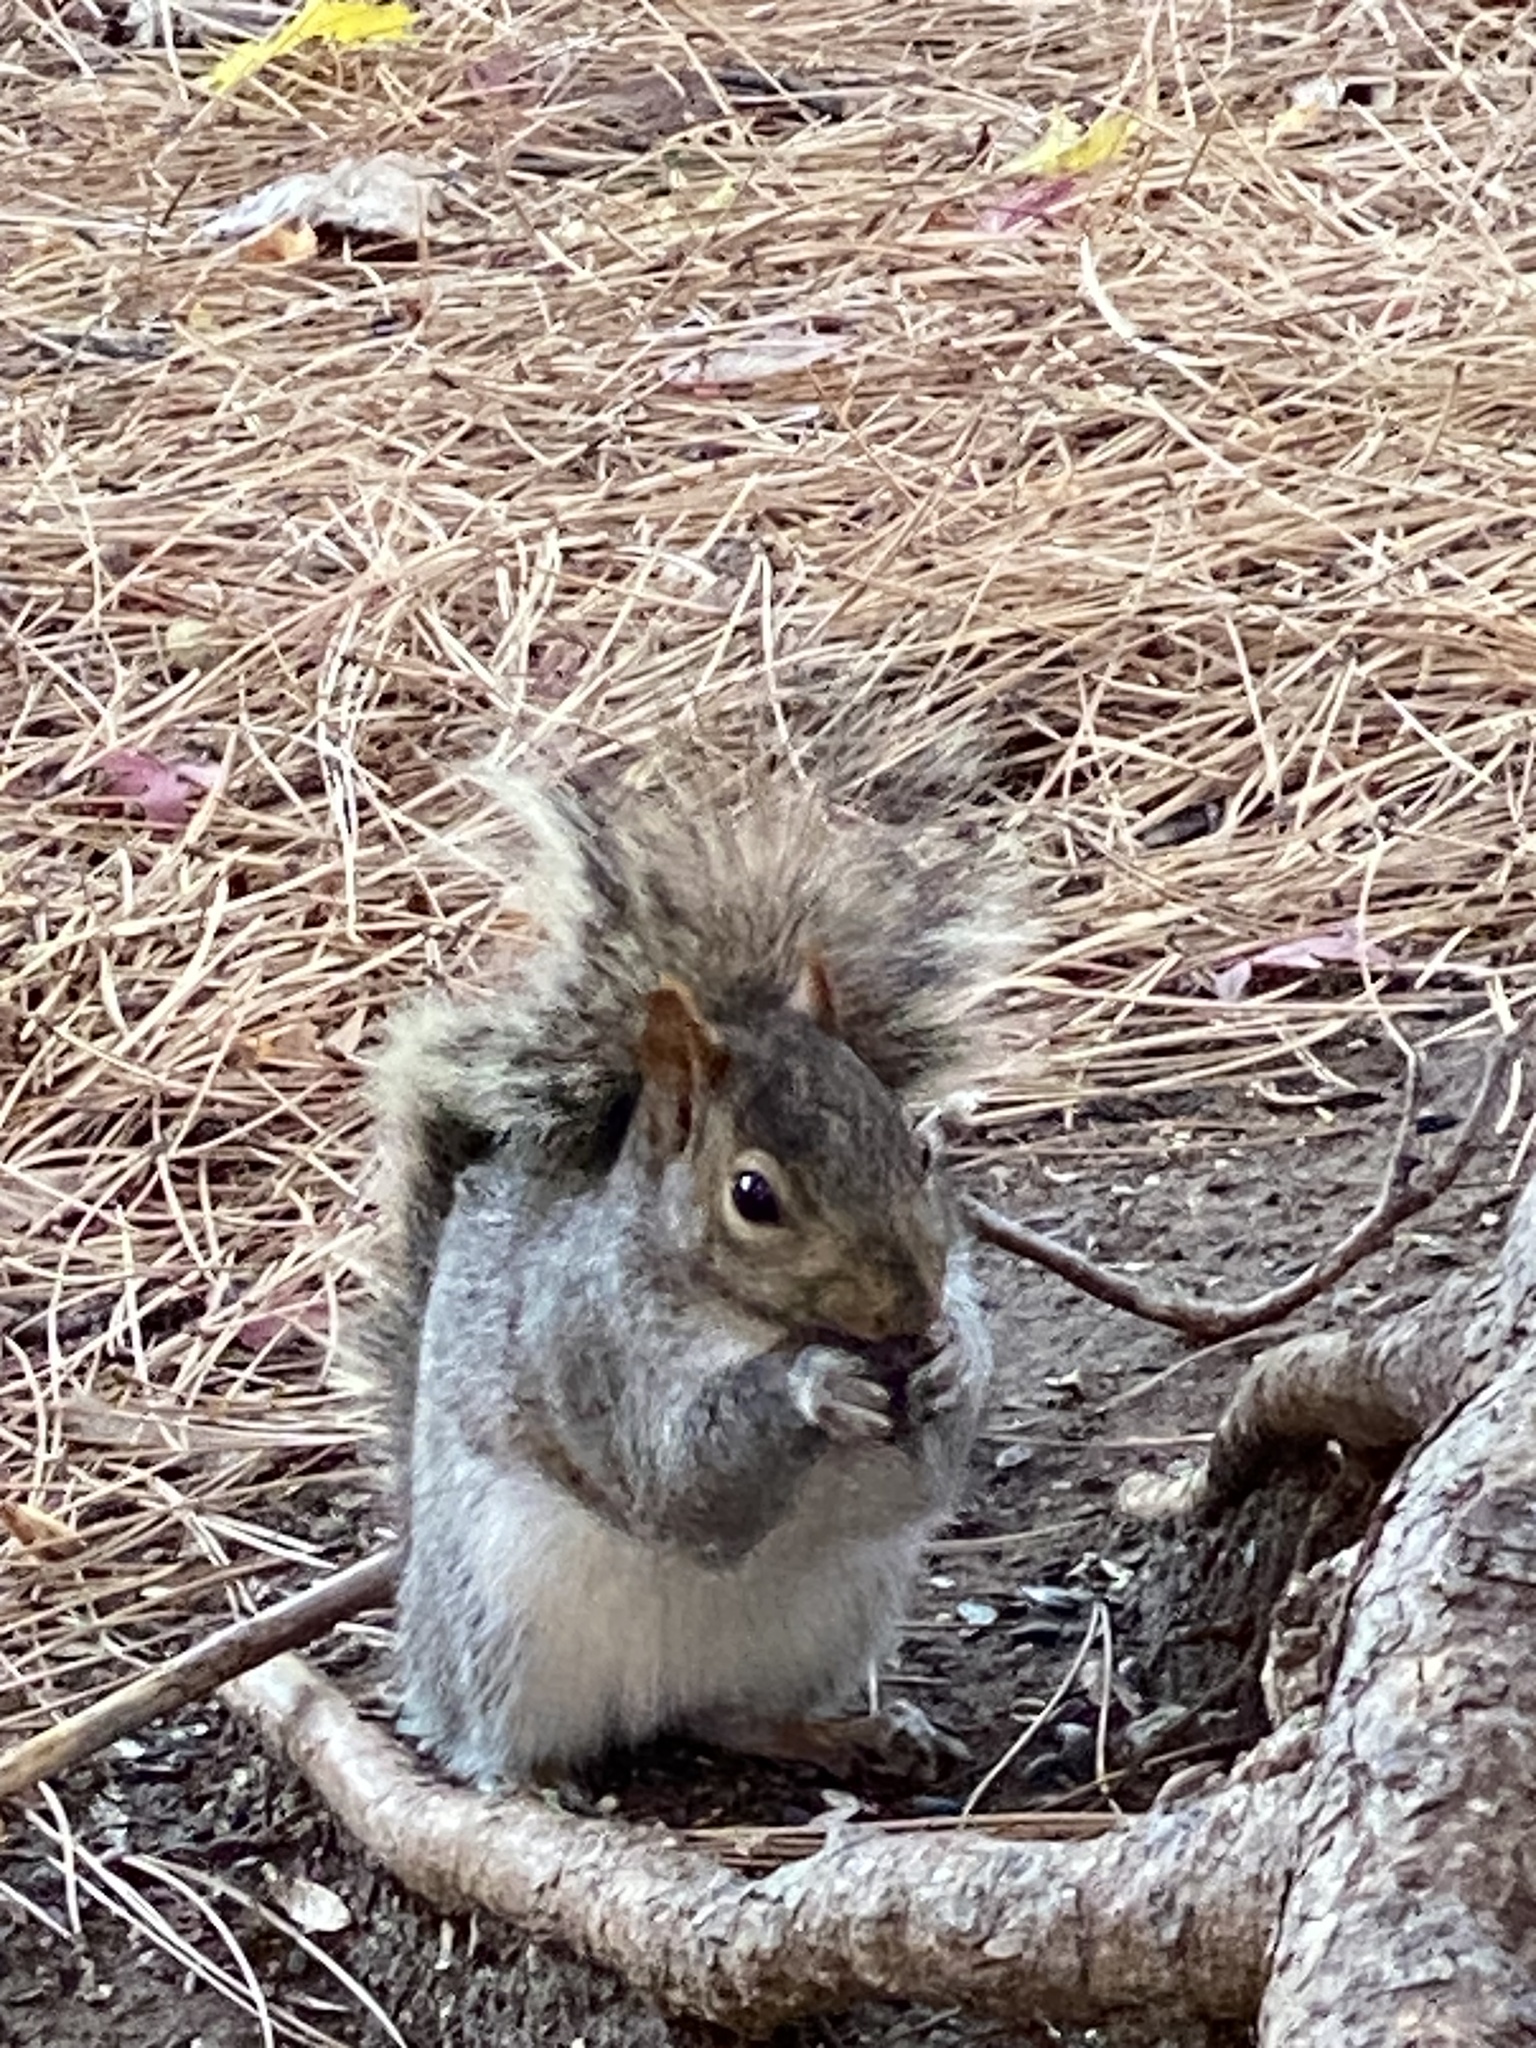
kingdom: Animalia
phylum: Chordata
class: Mammalia
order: Rodentia
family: Sciuridae
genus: Sciurus
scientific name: Sciurus carolinensis
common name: Eastern gray squirrel
